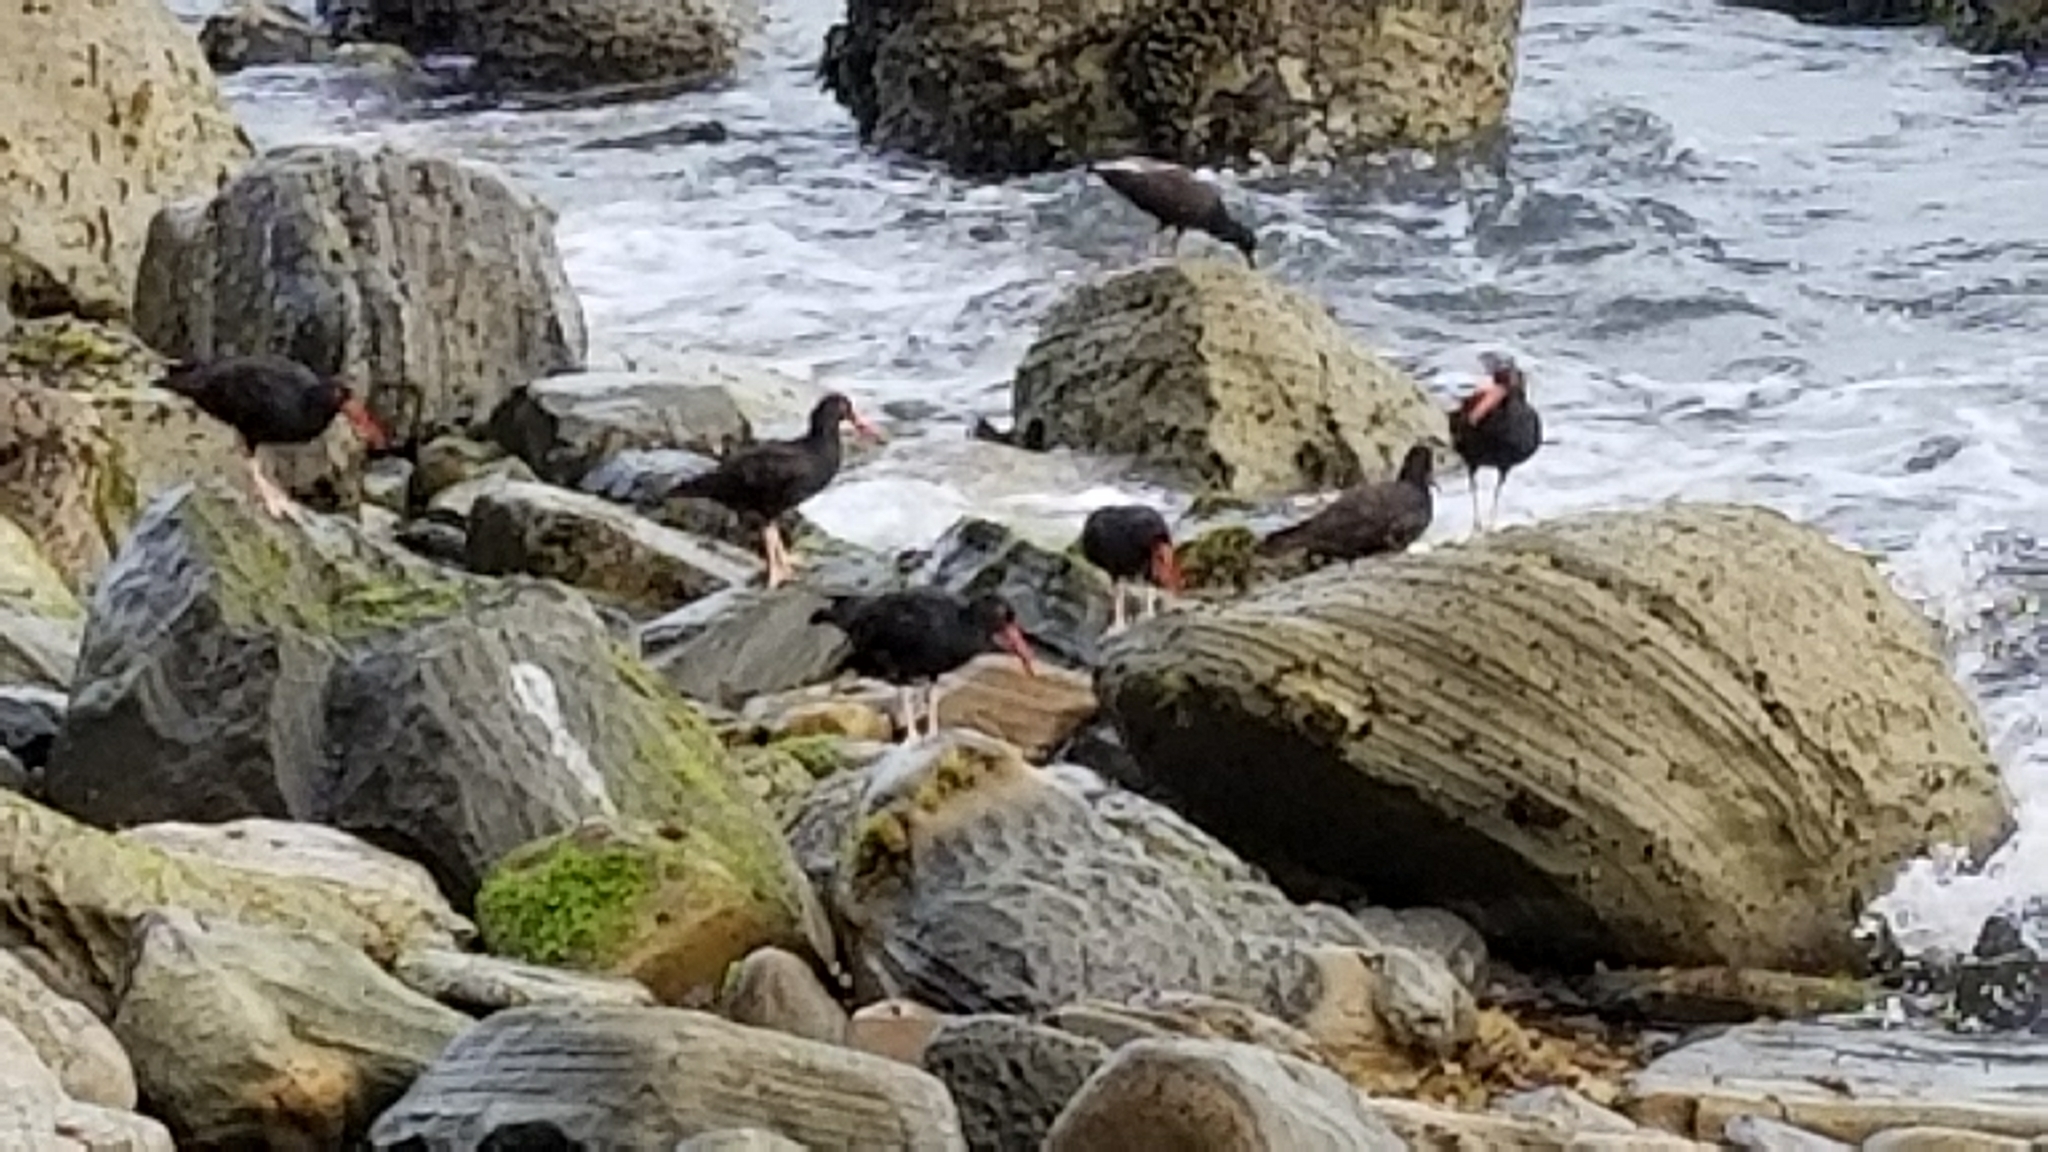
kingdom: Animalia
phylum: Chordata
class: Aves
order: Charadriiformes
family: Haematopodidae
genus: Haematopus
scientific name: Haematopus bachmani
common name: Black oystercatcher
